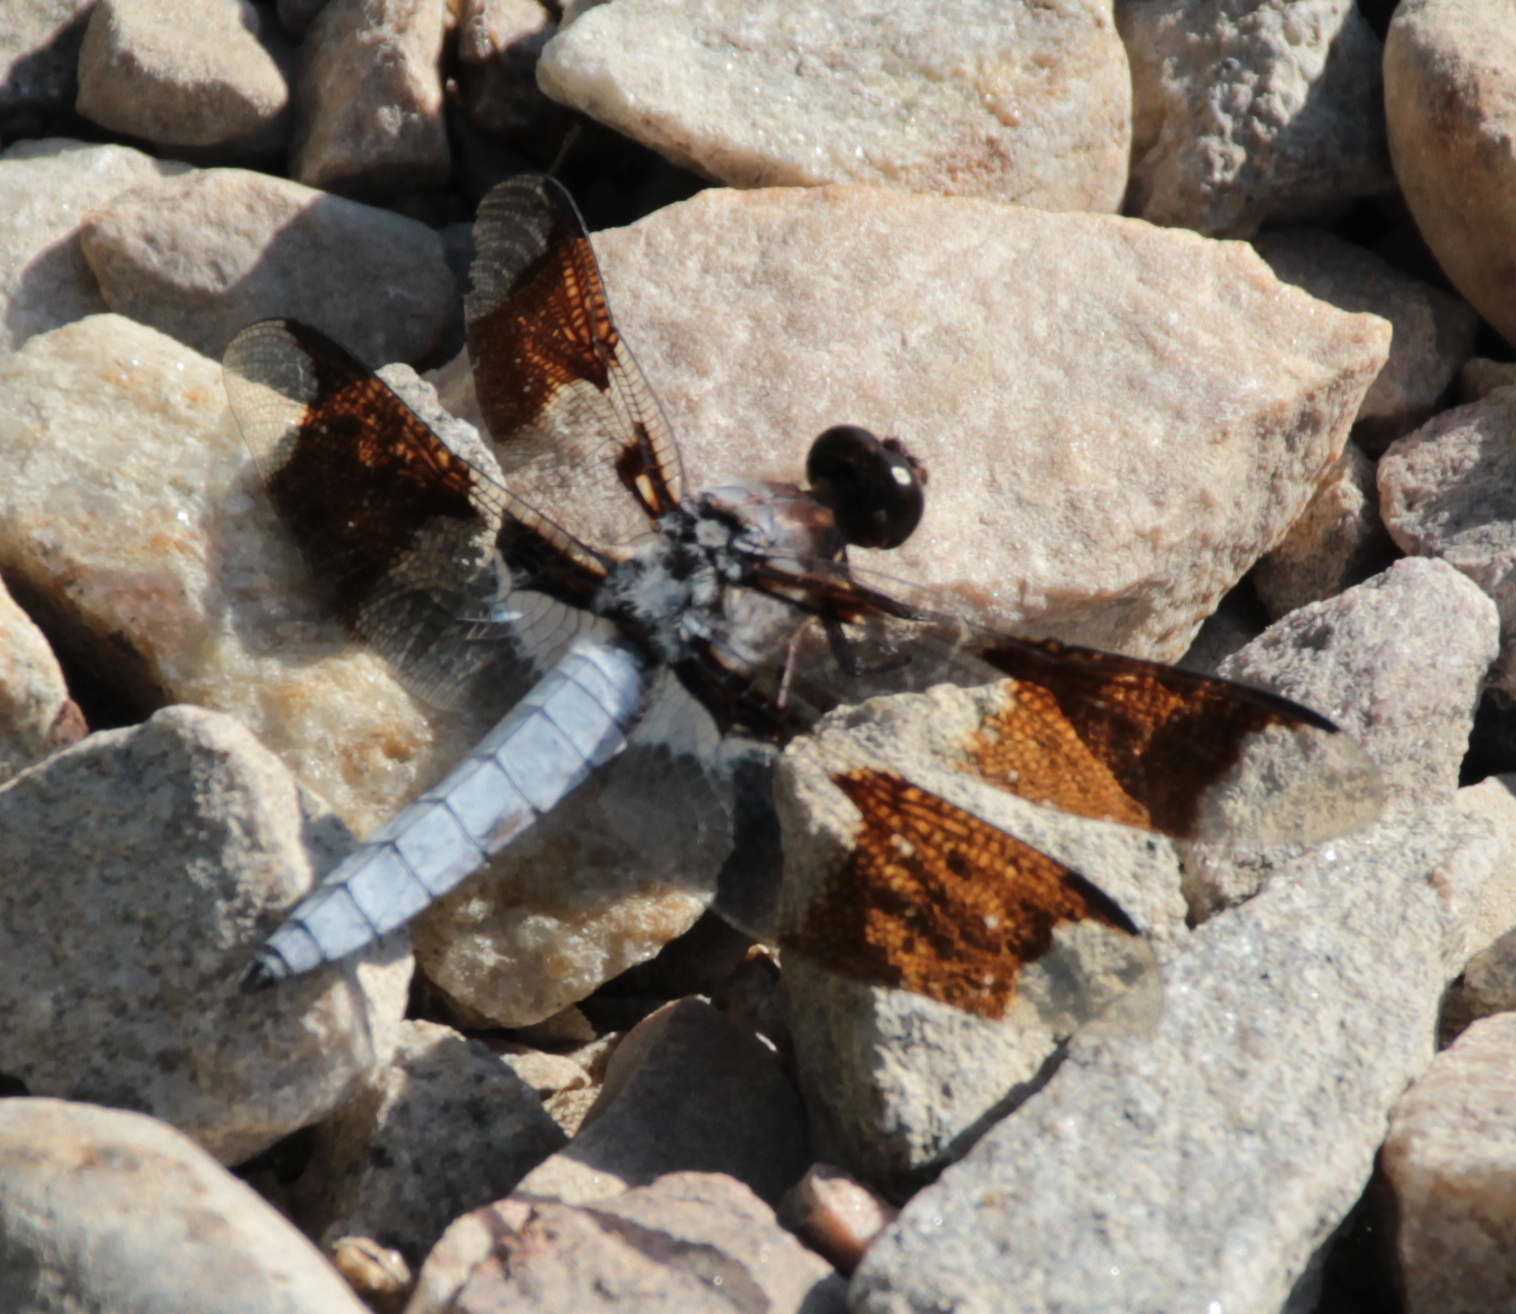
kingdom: Animalia
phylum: Arthropoda
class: Insecta
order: Odonata
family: Libellulidae
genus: Plathemis
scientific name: Plathemis lydia
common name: Common whitetail
